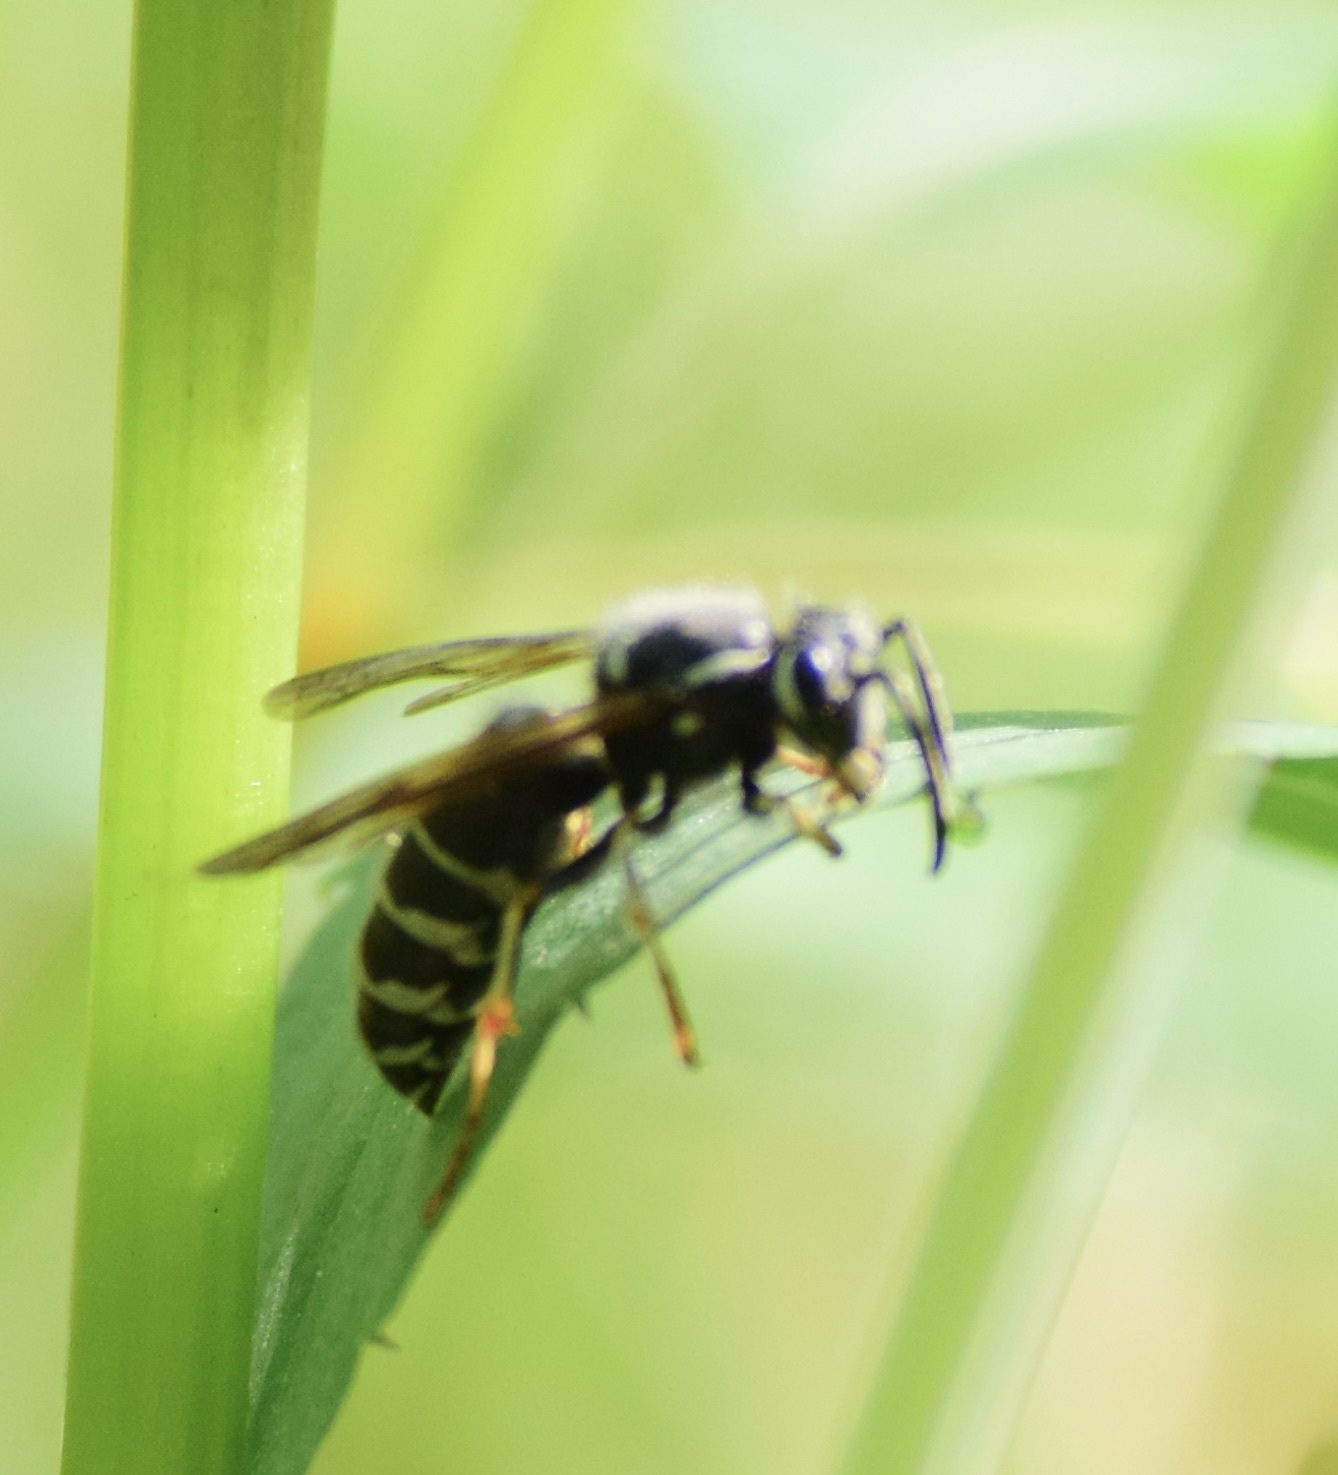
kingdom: Animalia
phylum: Arthropoda
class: Insecta
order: Hymenoptera
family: Vespidae
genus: Vespula
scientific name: Vespula consobrina
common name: Blackjacket
